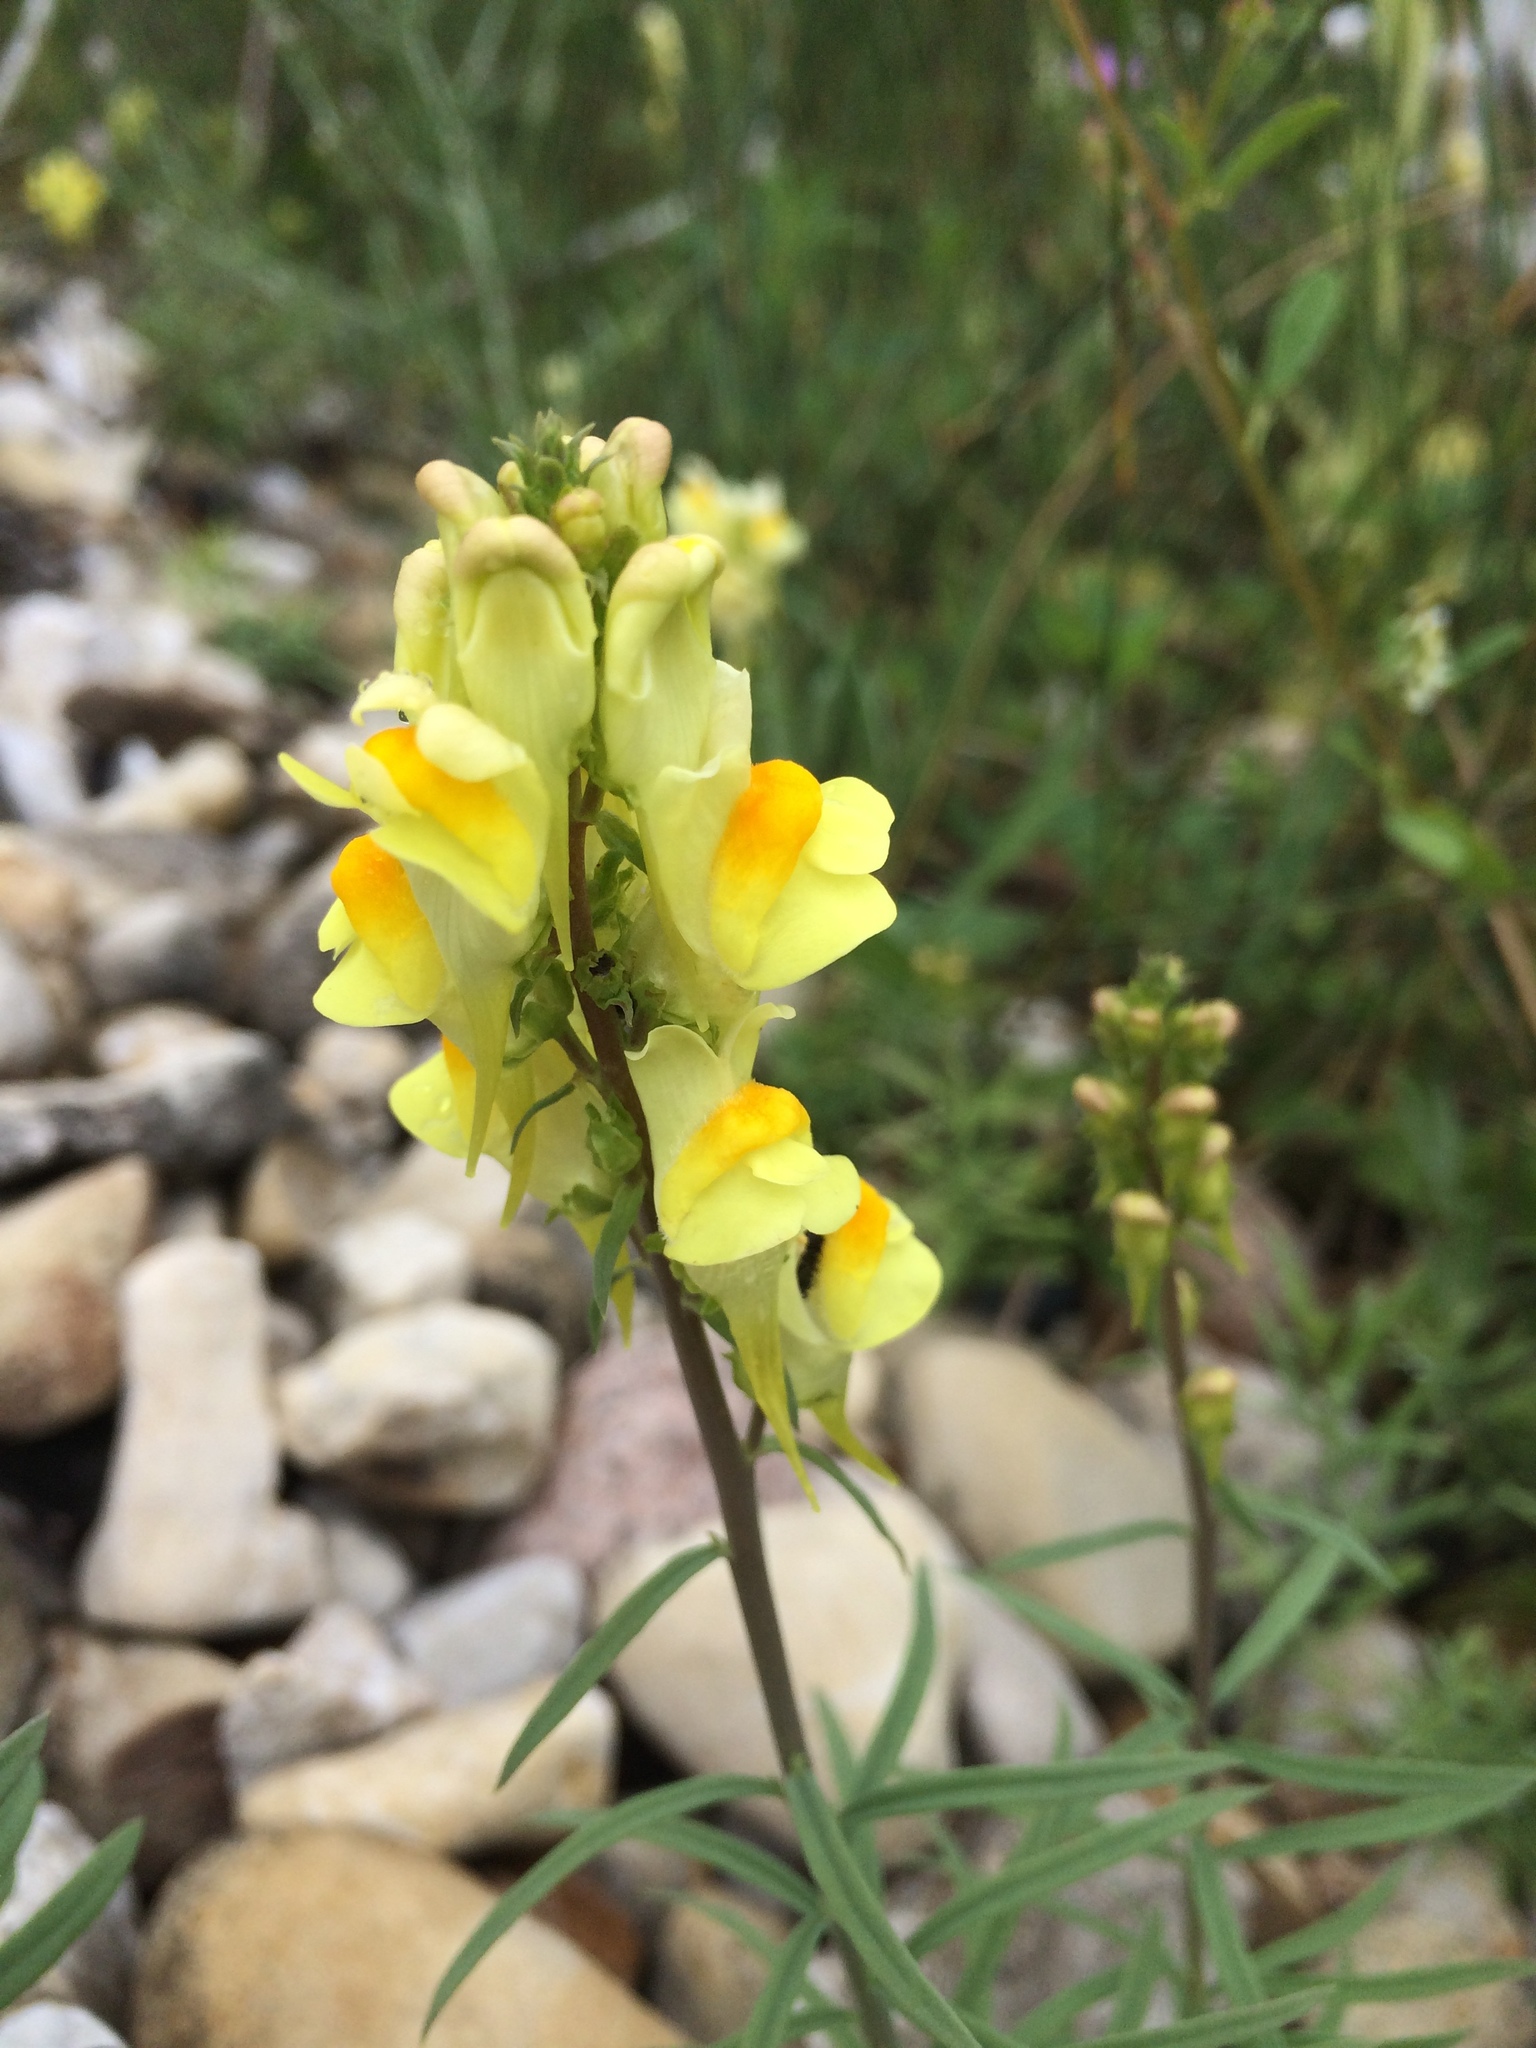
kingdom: Plantae
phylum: Tracheophyta
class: Magnoliopsida
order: Lamiales
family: Plantaginaceae
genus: Linaria
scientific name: Linaria vulgaris
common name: Butter and eggs
